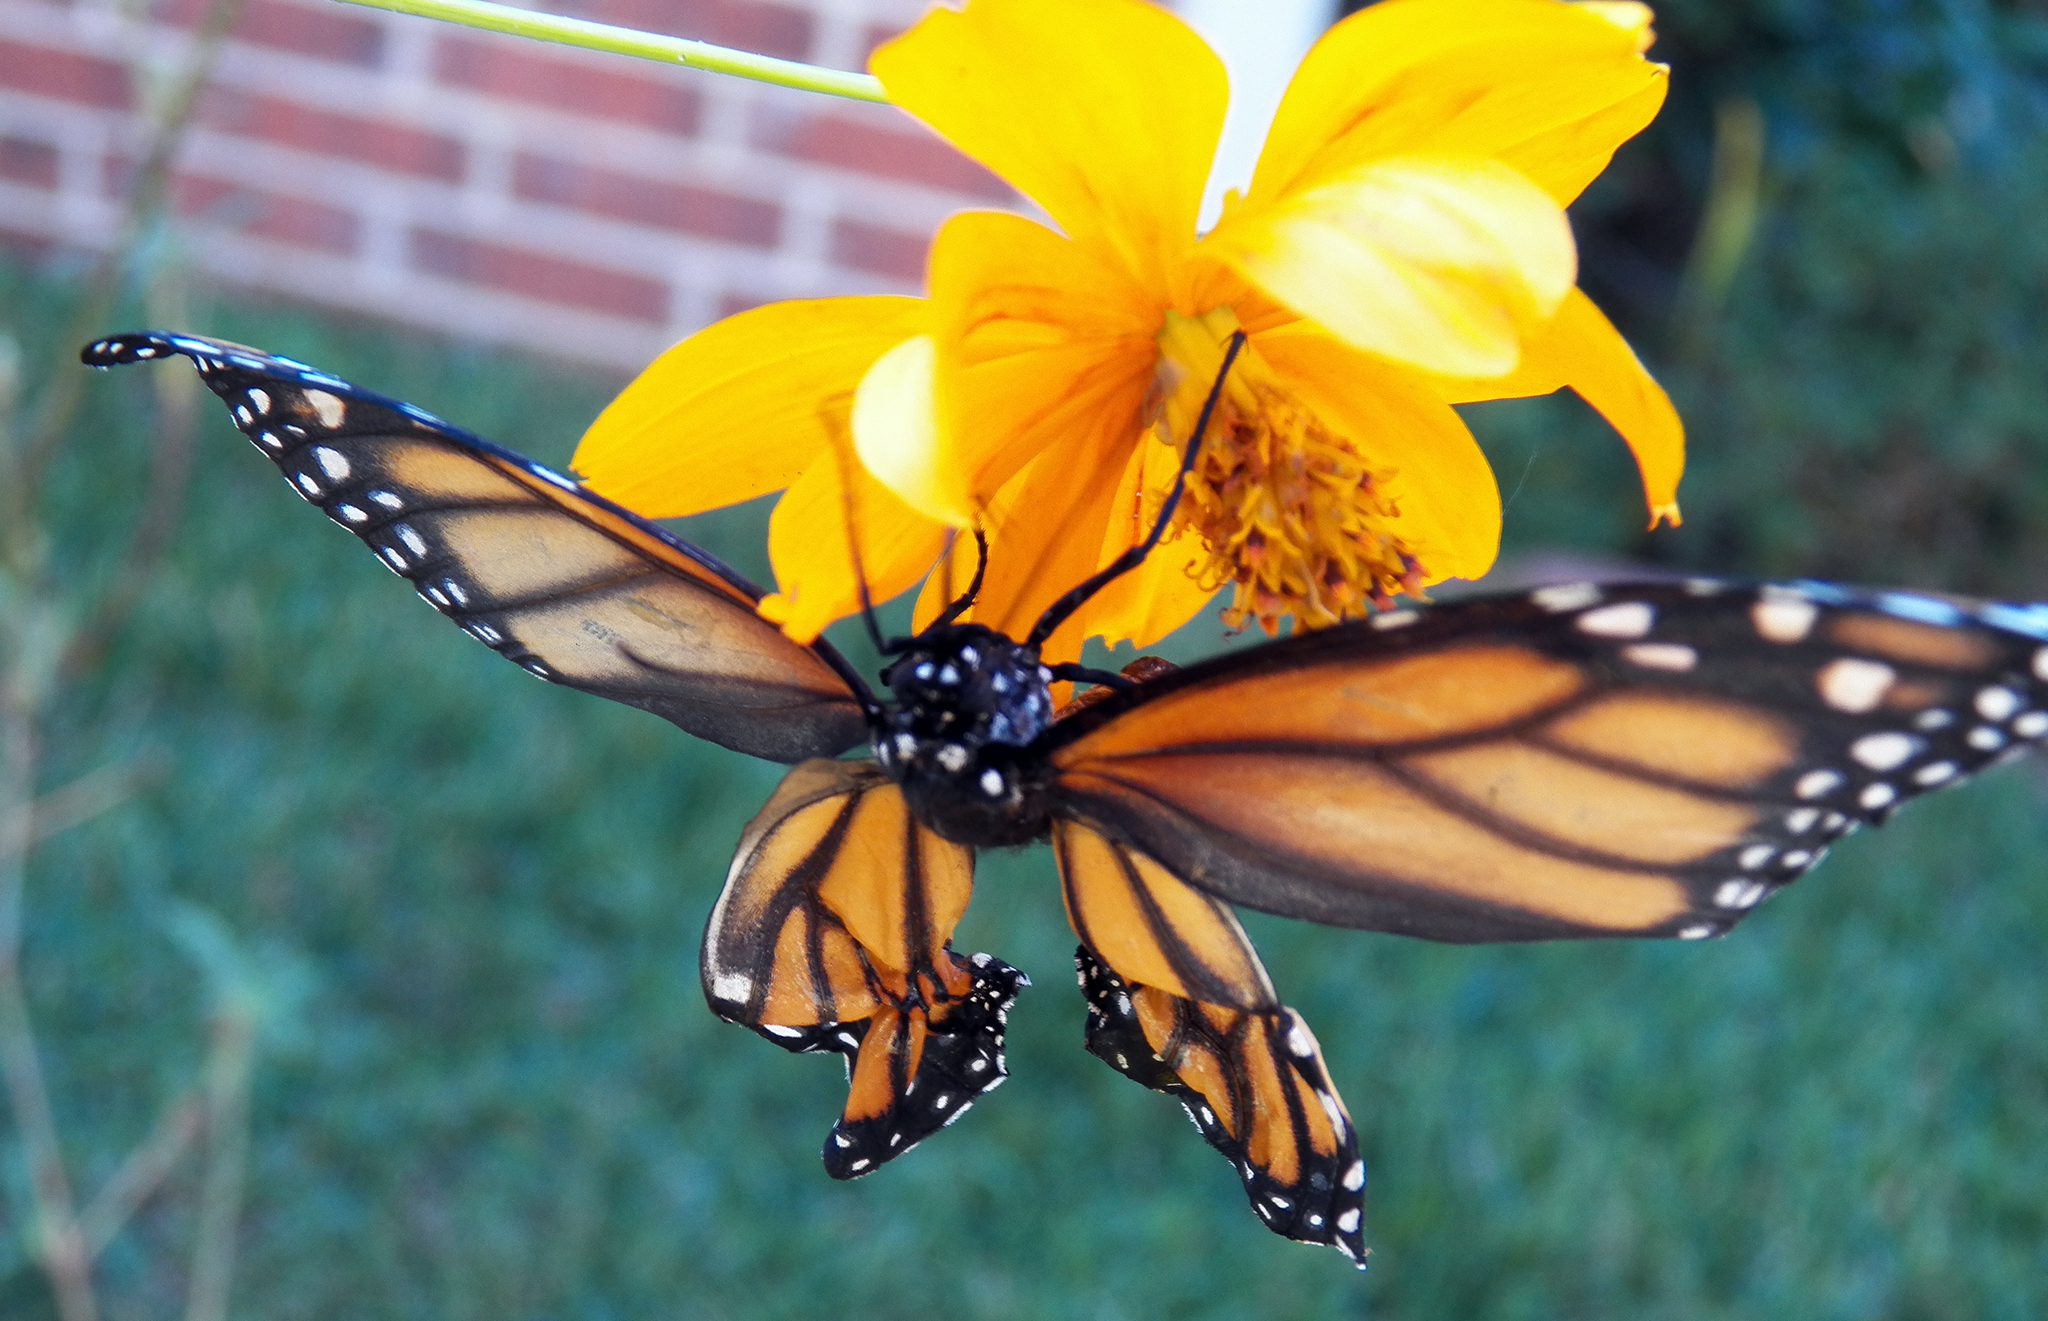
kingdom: Animalia
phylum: Arthropoda
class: Insecta
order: Lepidoptera
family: Nymphalidae
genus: Danaus
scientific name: Danaus plexippus
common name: Monarch
